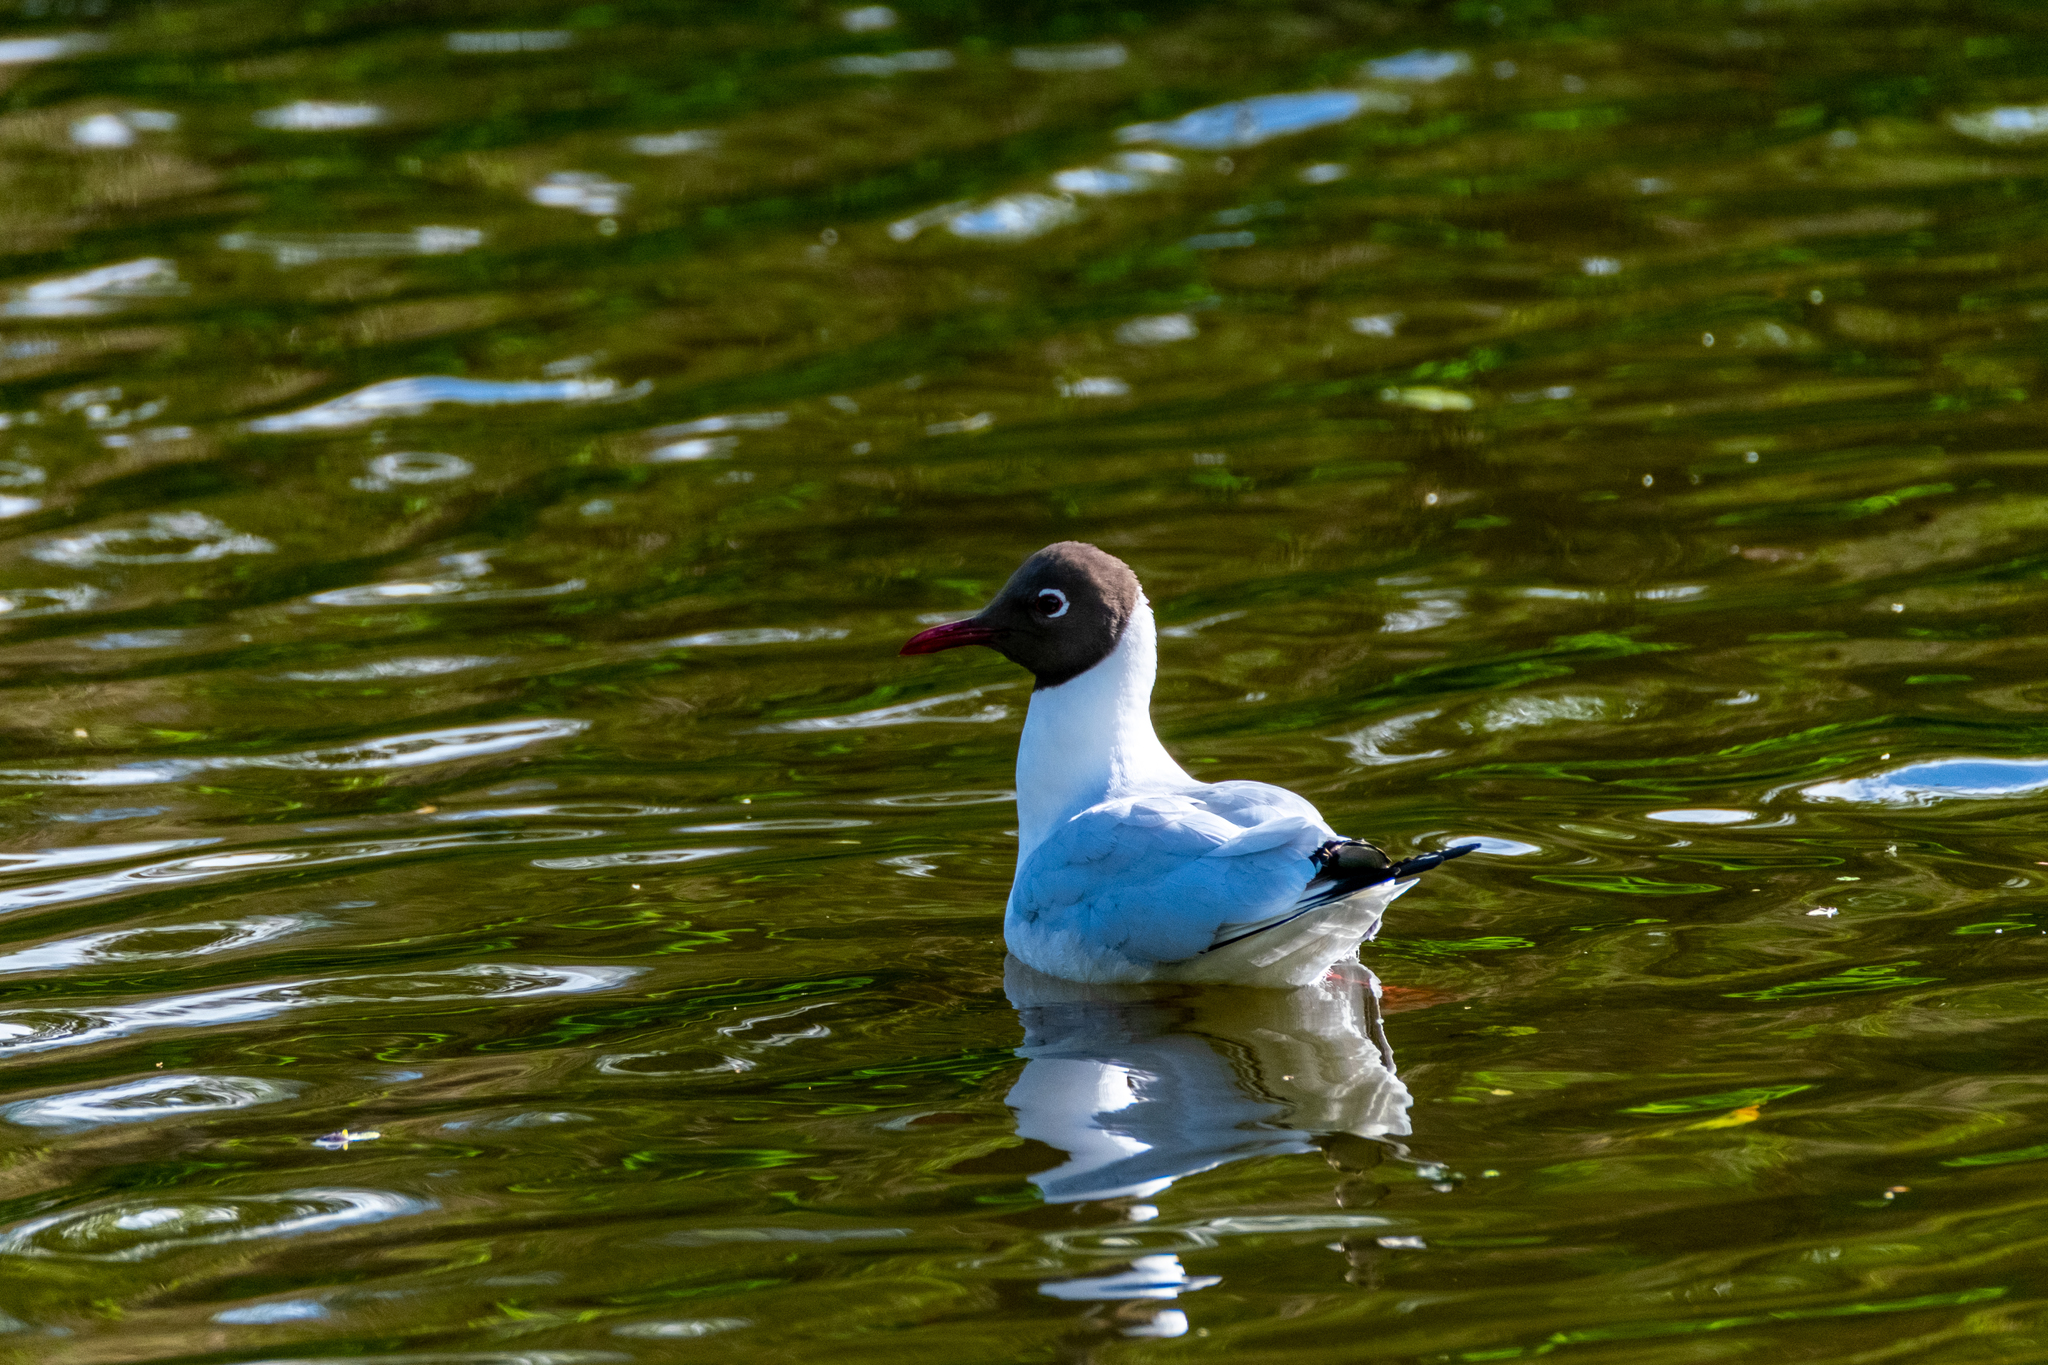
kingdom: Animalia
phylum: Chordata
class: Aves
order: Charadriiformes
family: Laridae
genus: Chroicocephalus
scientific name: Chroicocephalus ridibundus
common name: Black-headed gull
